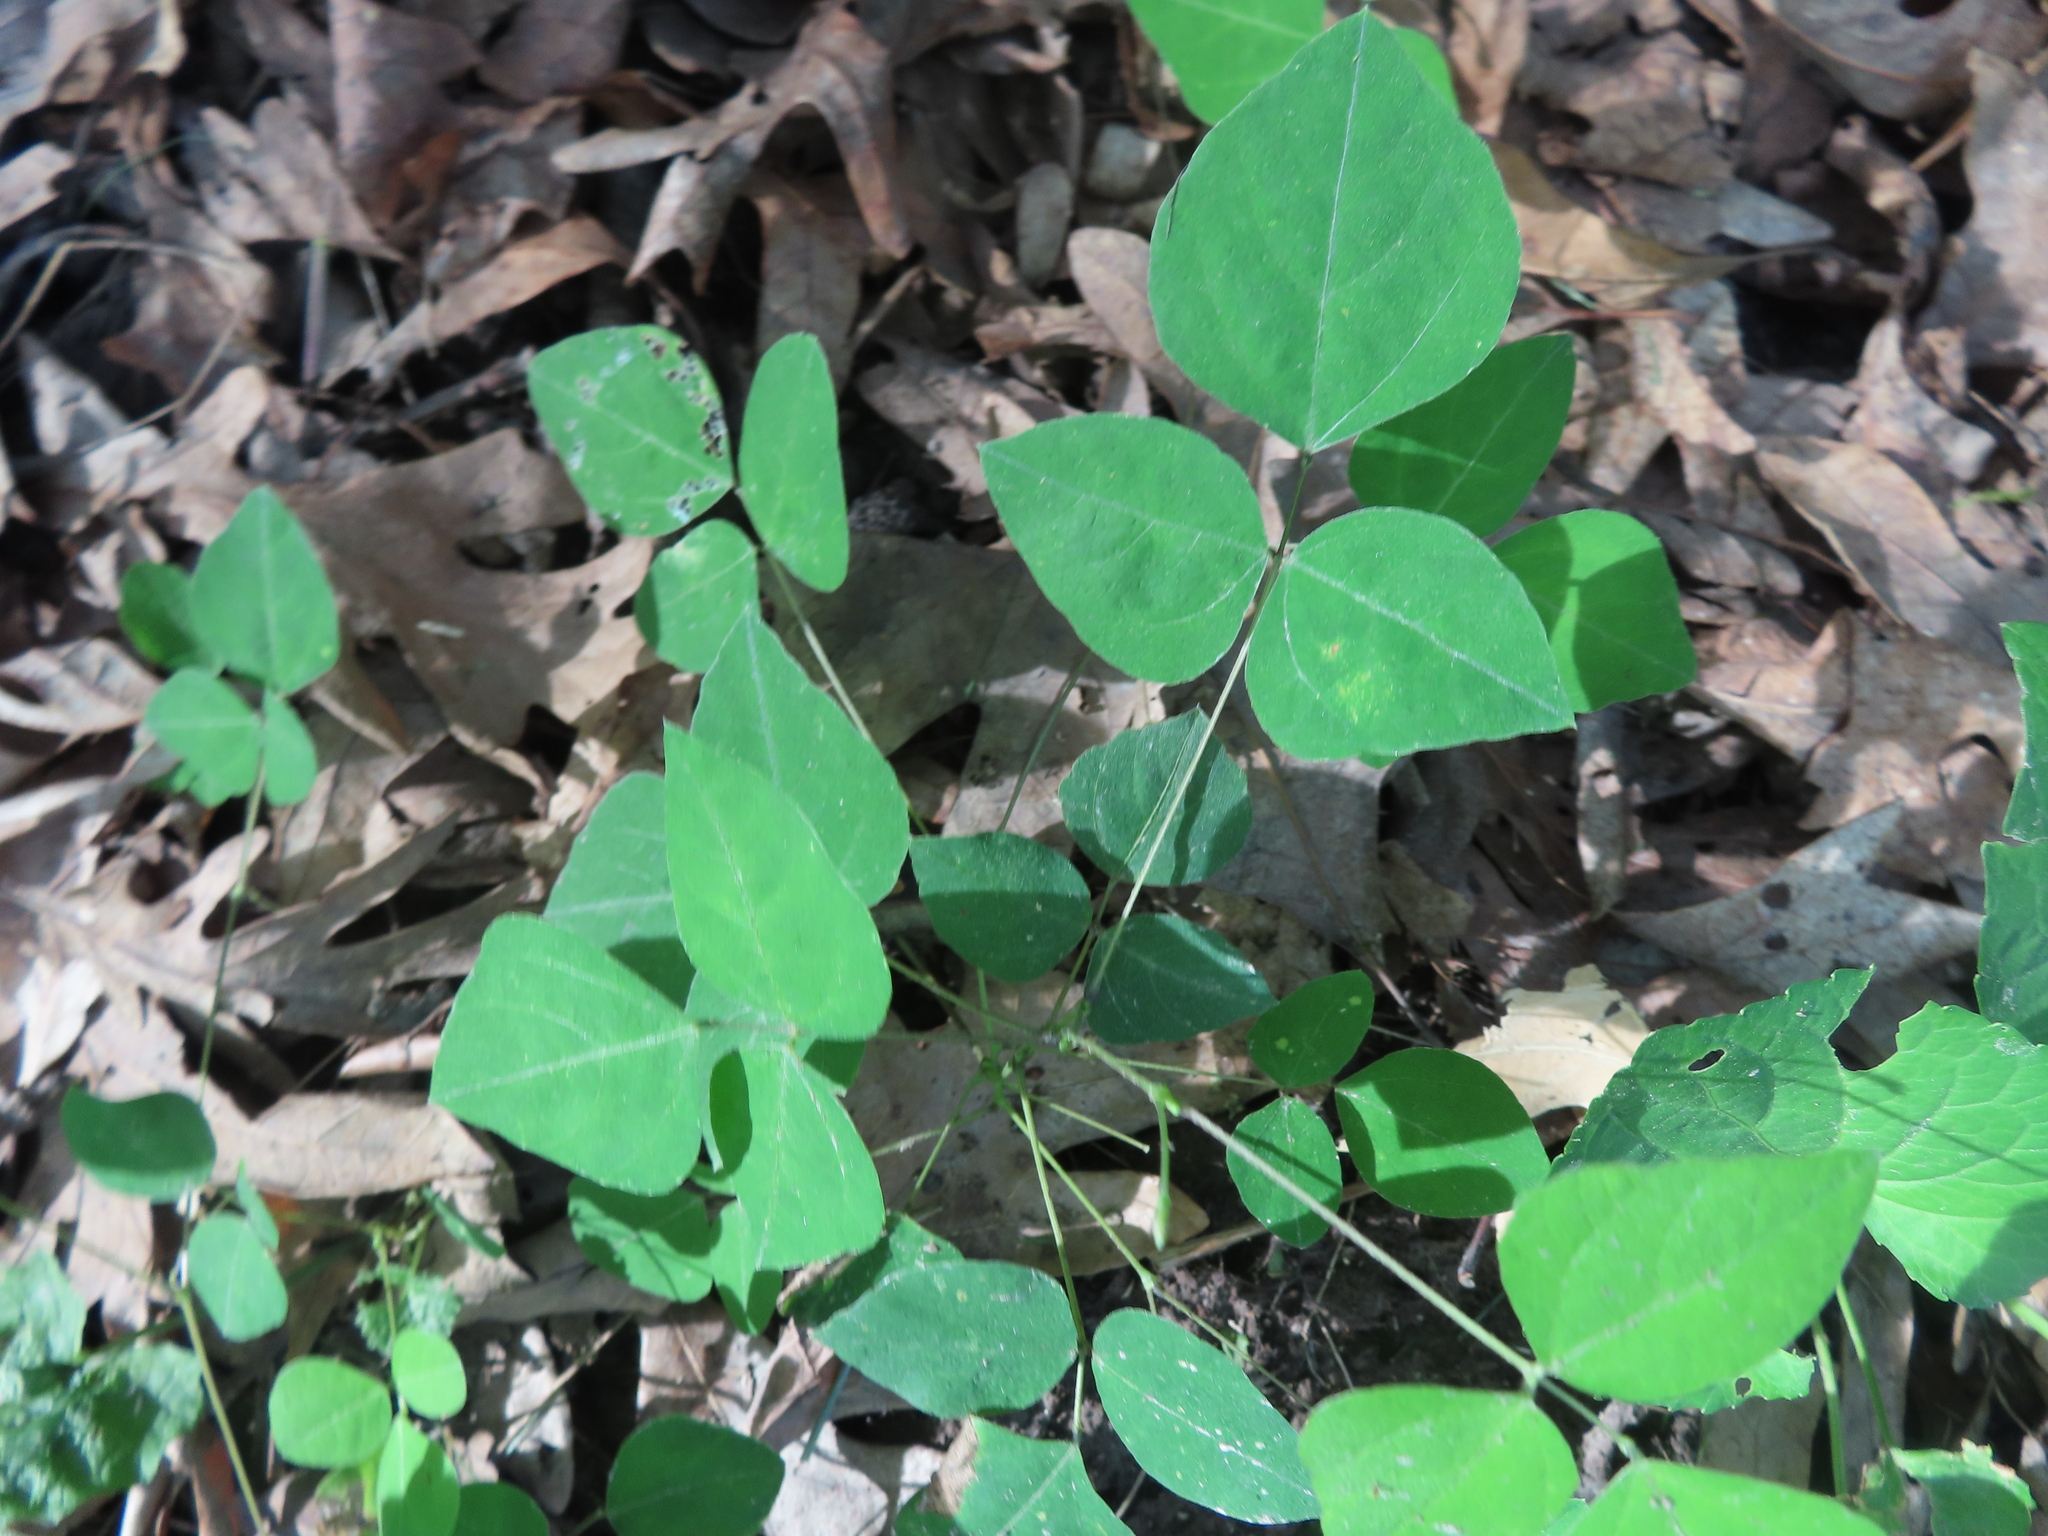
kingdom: Plantae
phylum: Tracheophyta
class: Magnoliopsida
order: Fabales
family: Fabaceae
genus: Amphicarpaea
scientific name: Amphicarpaea bracteata
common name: American hog peanut
